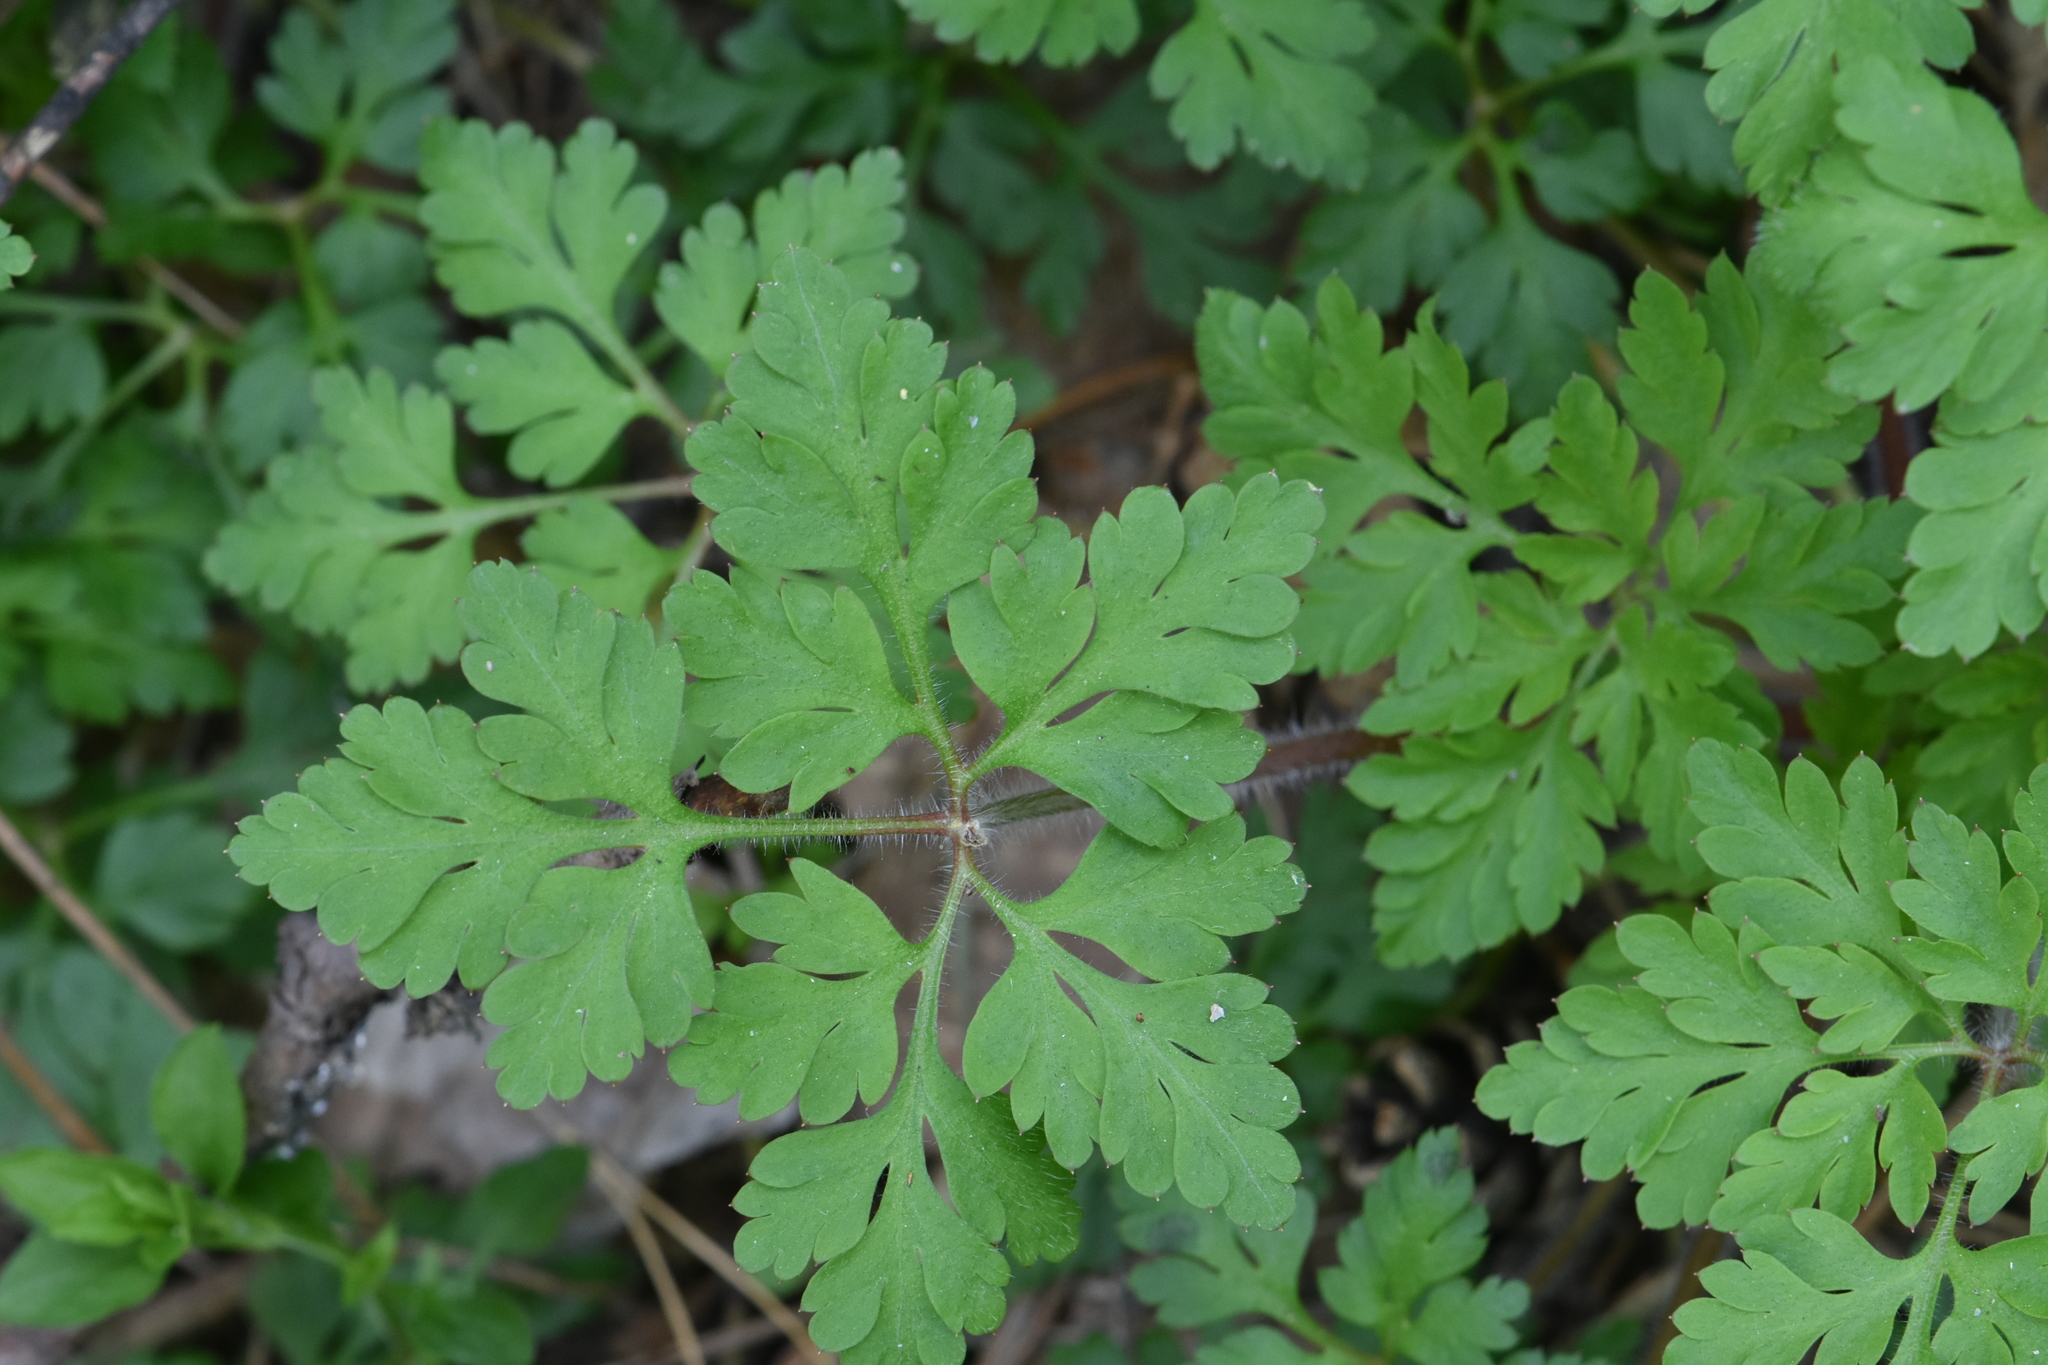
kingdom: Plantae
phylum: Tracheophyta
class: Magnoliopsida
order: Geraniales
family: Geraniaceae
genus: Geranium
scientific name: Geranium robertianum
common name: Herb-robert
